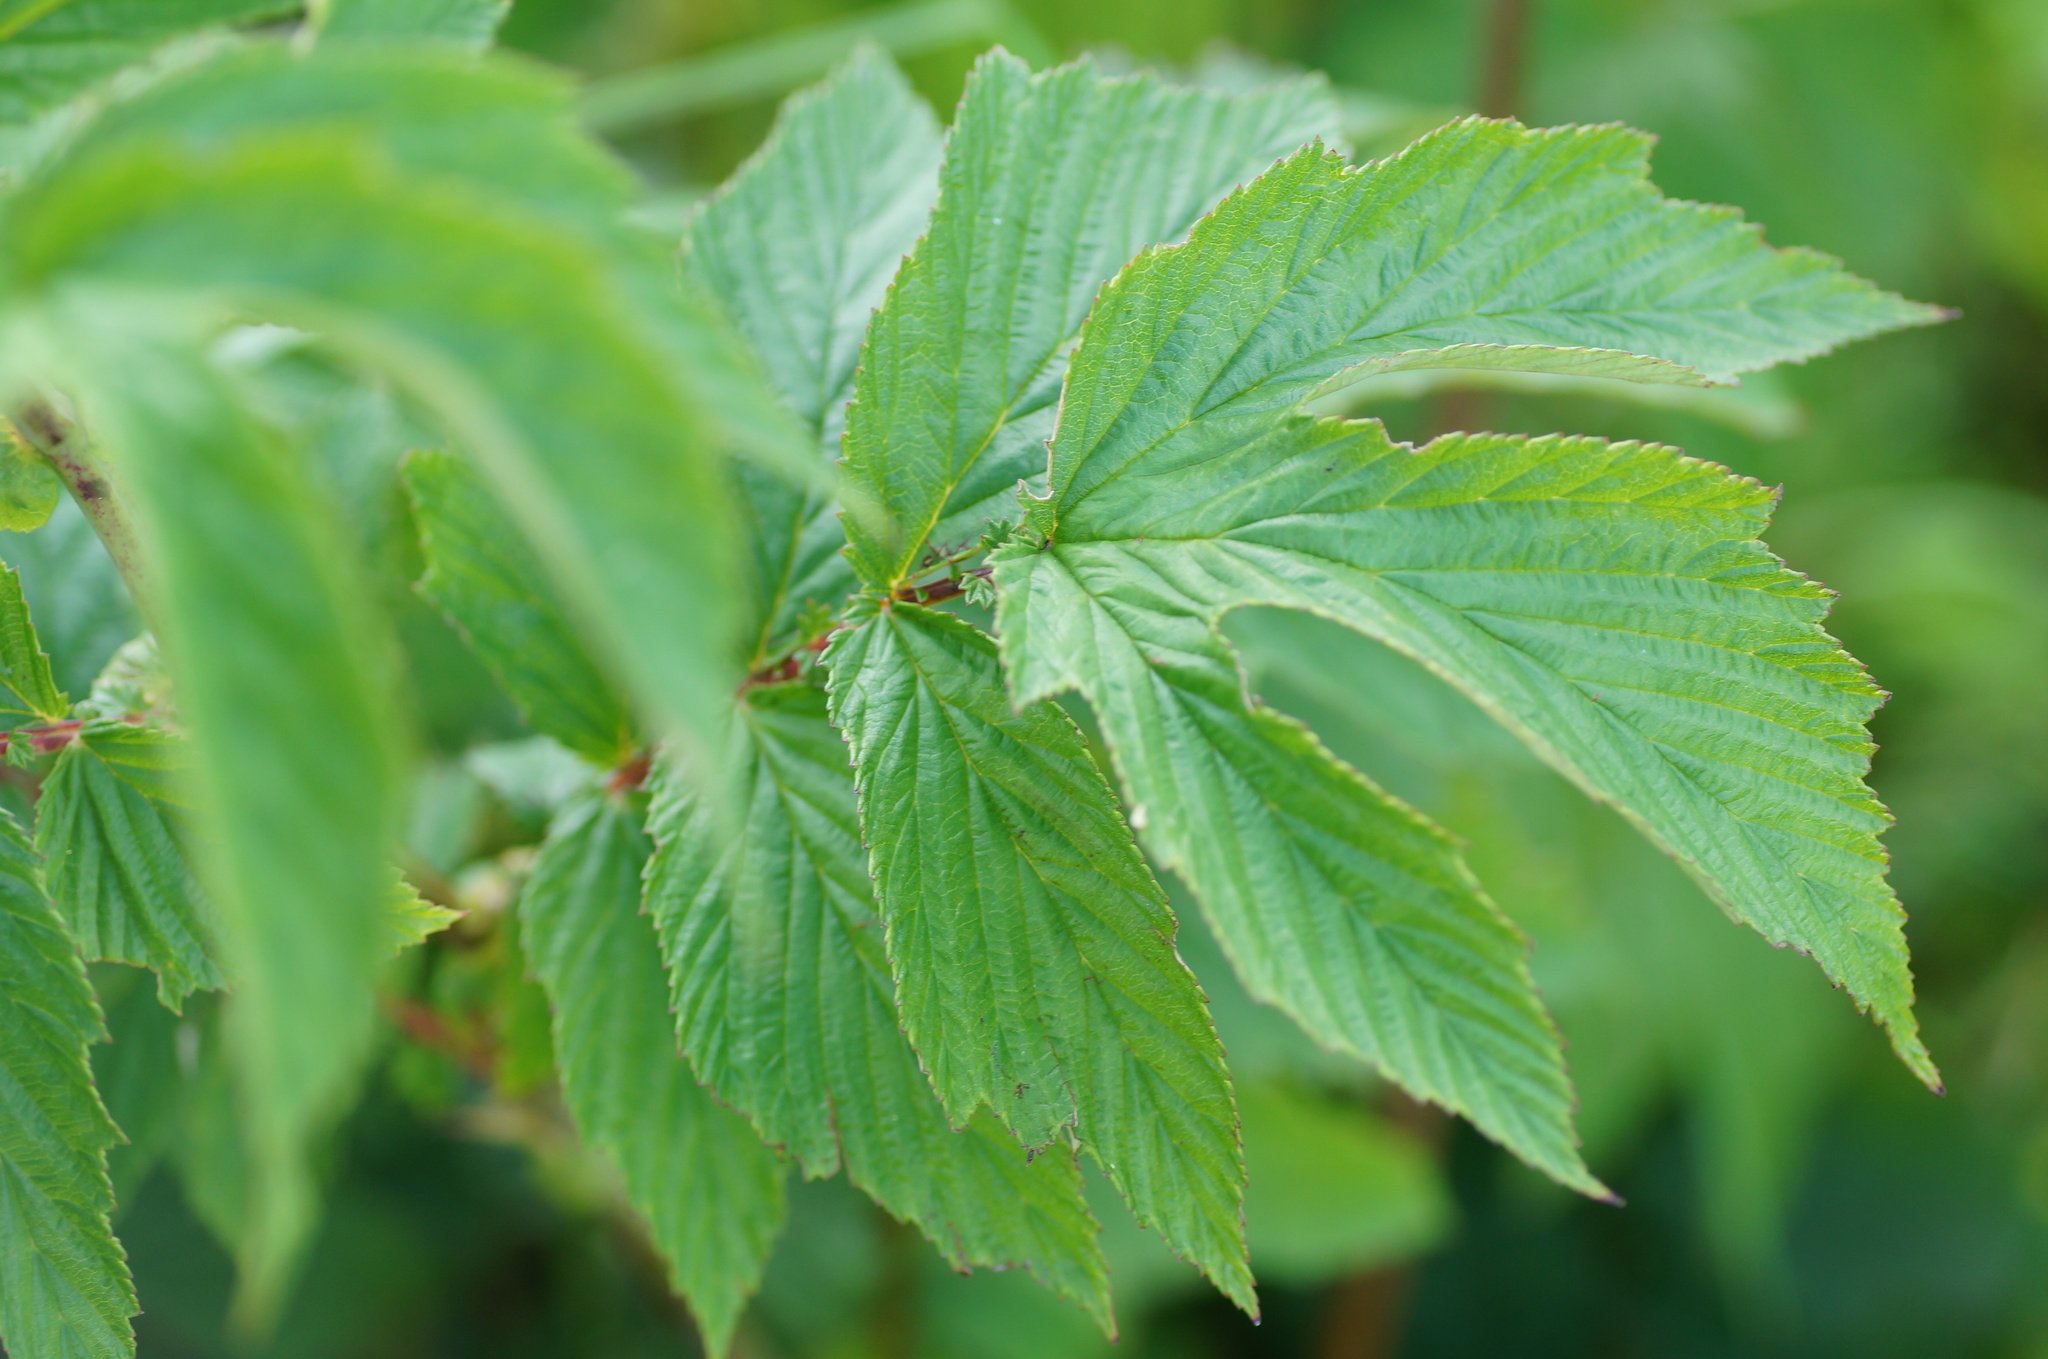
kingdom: Plantae
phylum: Tracheophyta
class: Magnoliopsida
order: Rosales
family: Rosaceae
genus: Filipendula
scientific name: Filipendula ulmaria
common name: Meadowsweet
